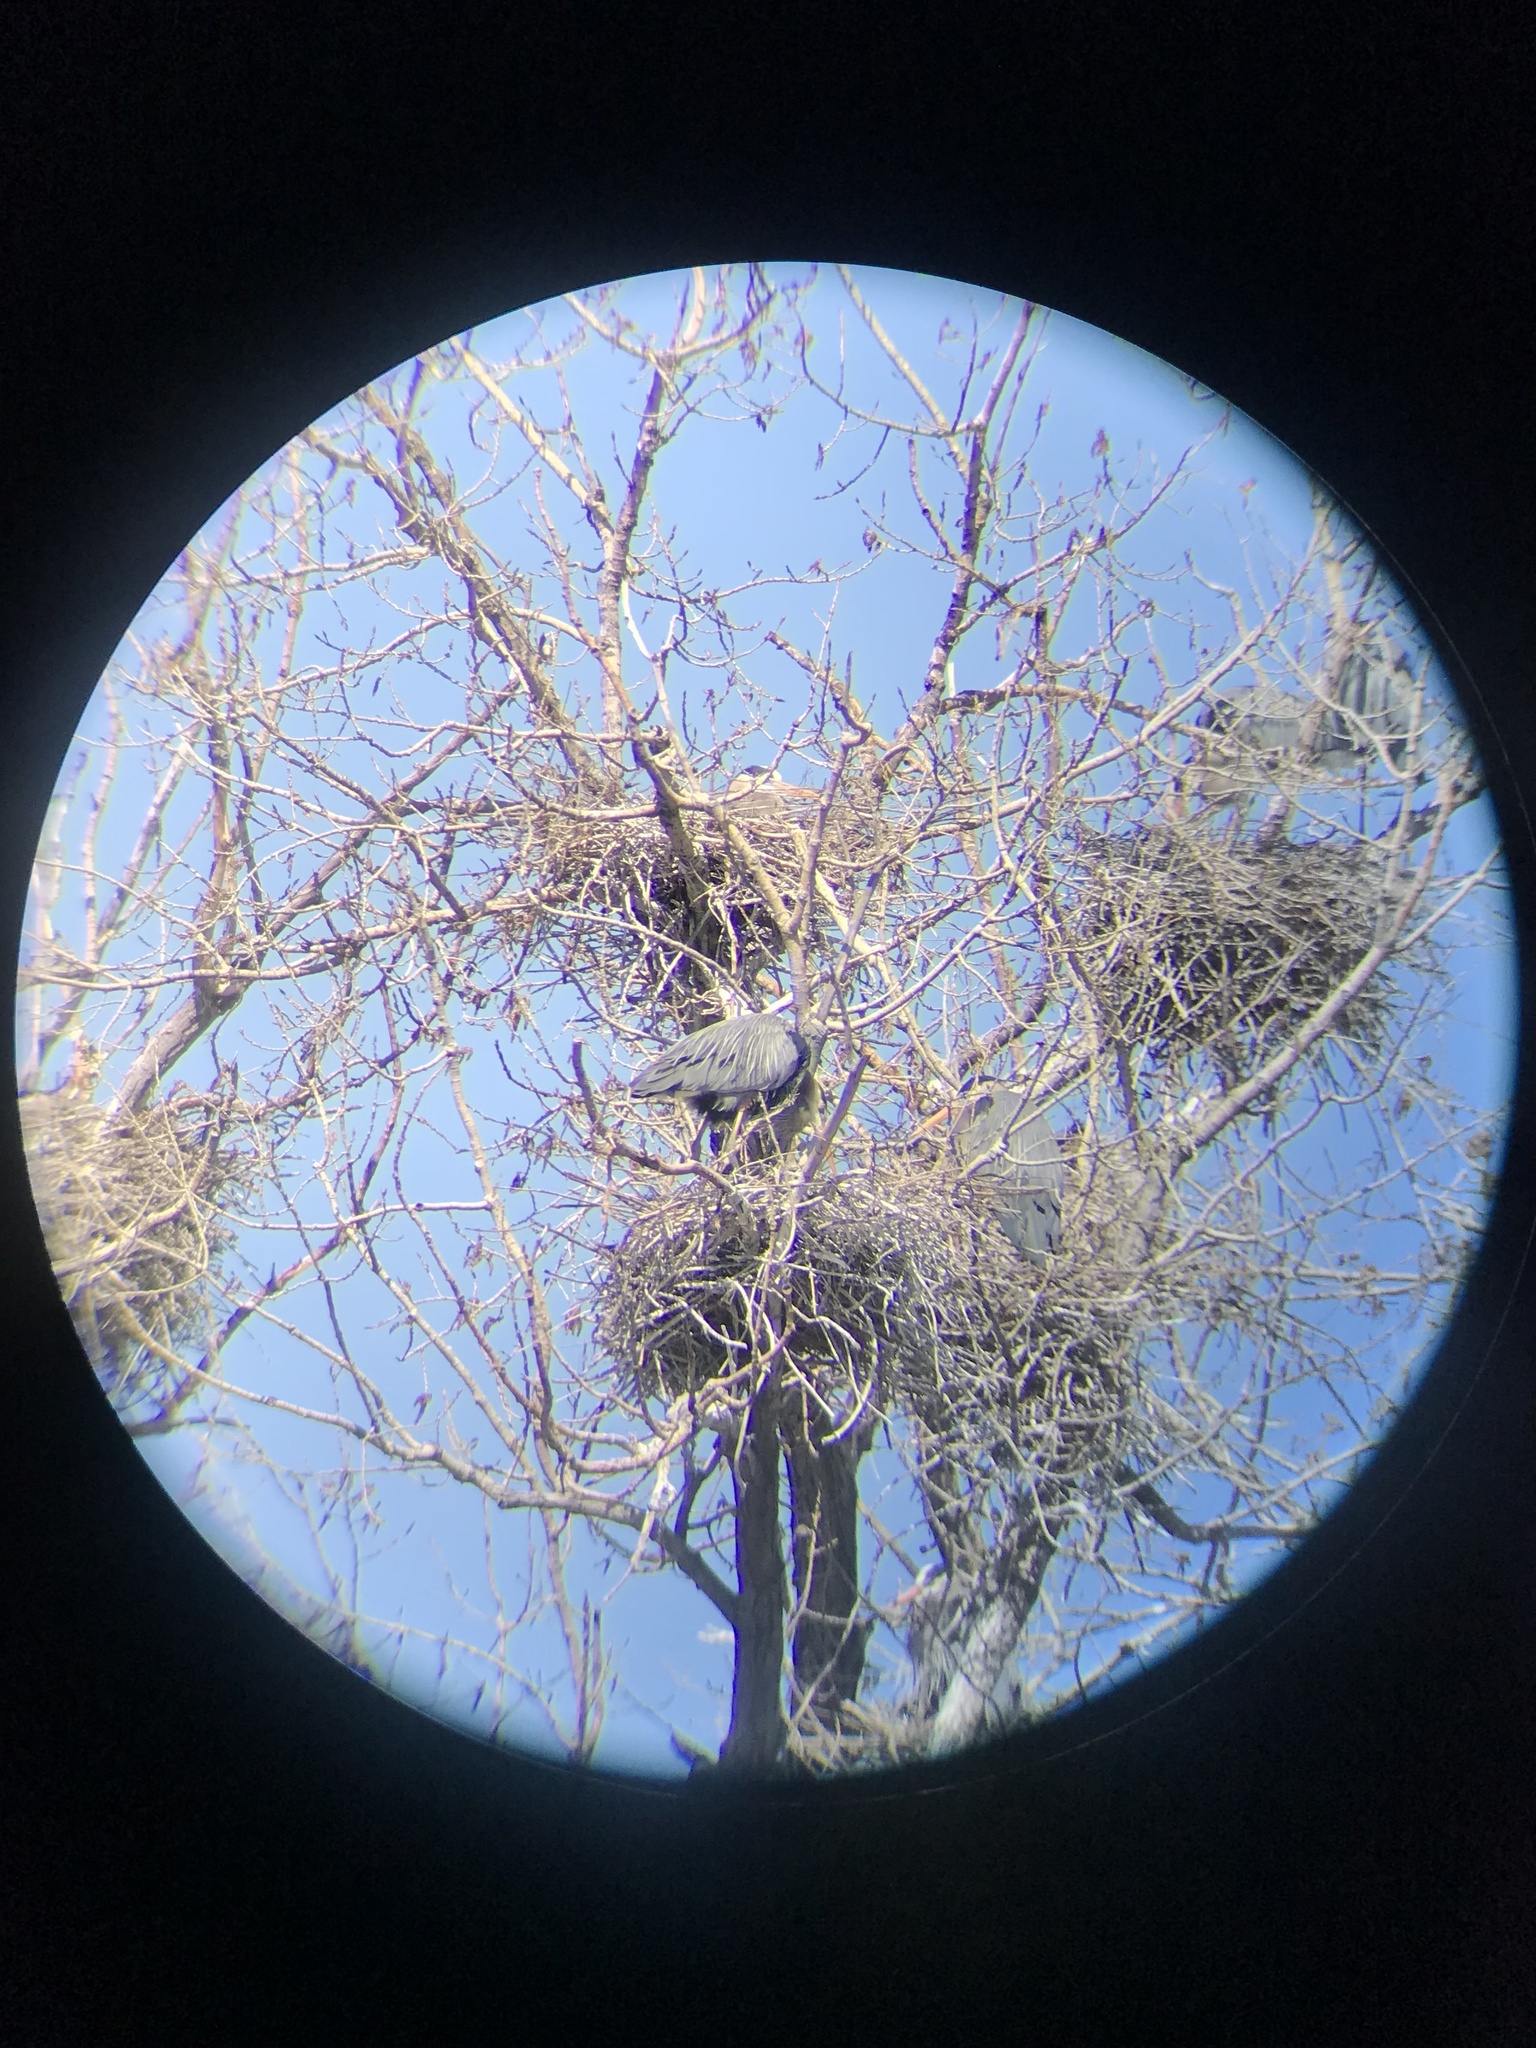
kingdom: Animalia
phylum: Chordata
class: Aves
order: Pelecaniformes
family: Ardeidae
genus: Ardea
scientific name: Ardea herodias
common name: Great blue heron
